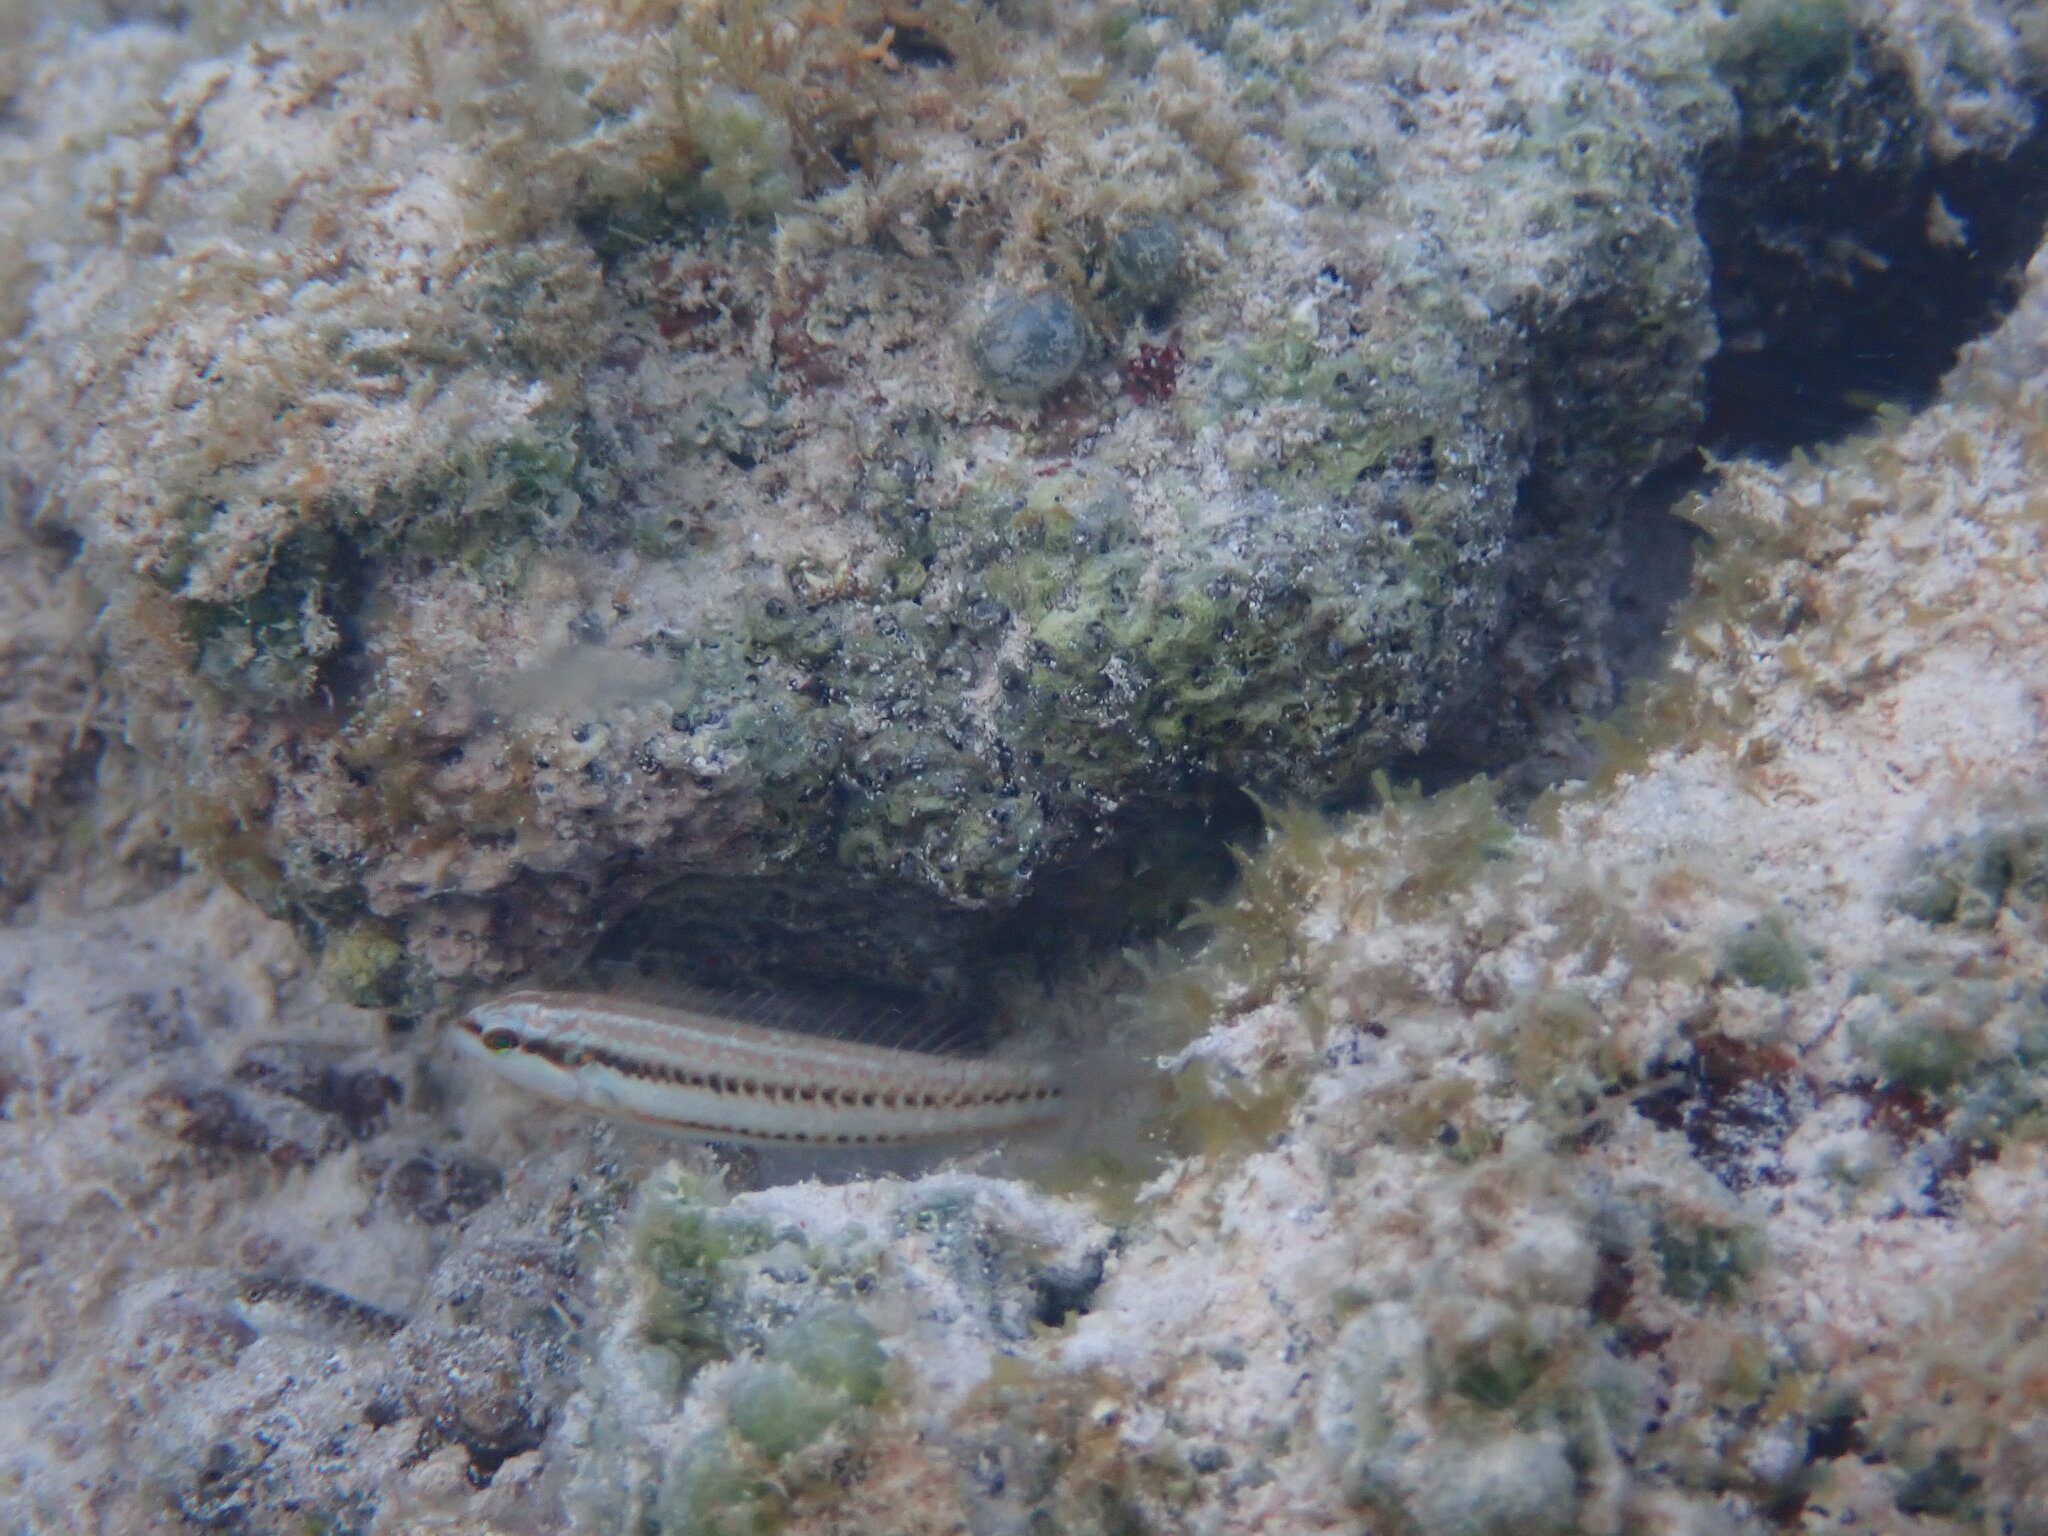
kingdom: Animalia
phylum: Chordata
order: Perciformes
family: Labridae
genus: Halichoeres
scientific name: Halichoeres bivittatus
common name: Slippery dick
